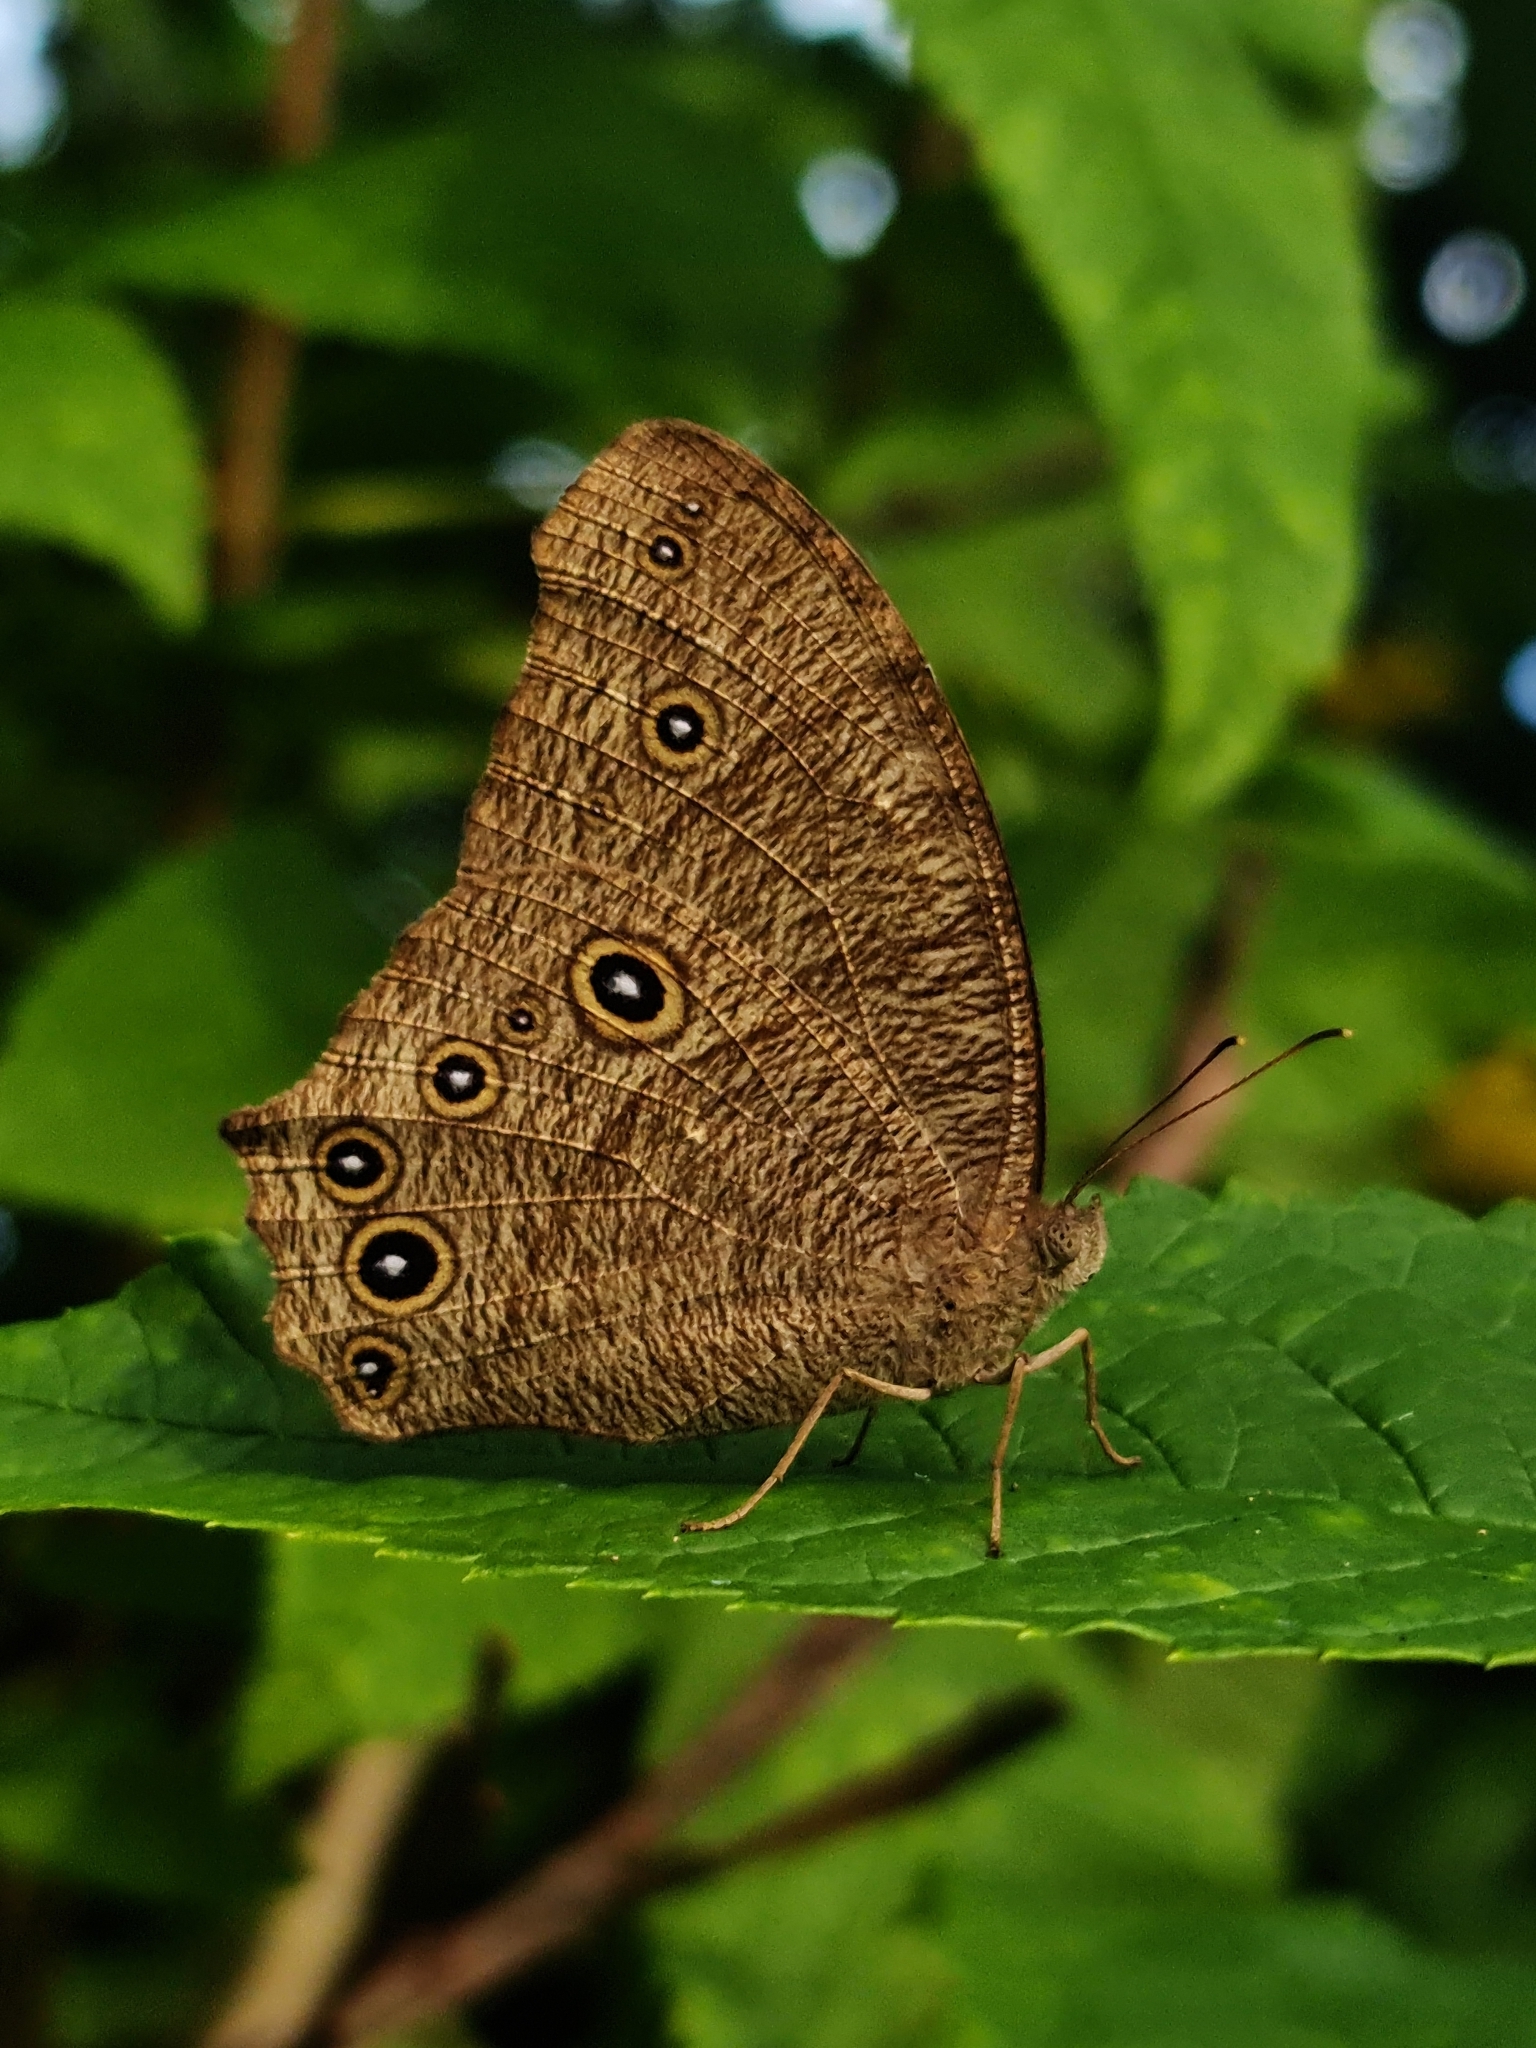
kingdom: Animalia
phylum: Arthropoda
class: Insecta
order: Lepidoptera
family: Nymphalidae
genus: Melanitis
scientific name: Melanitis leda
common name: Twilight brown
